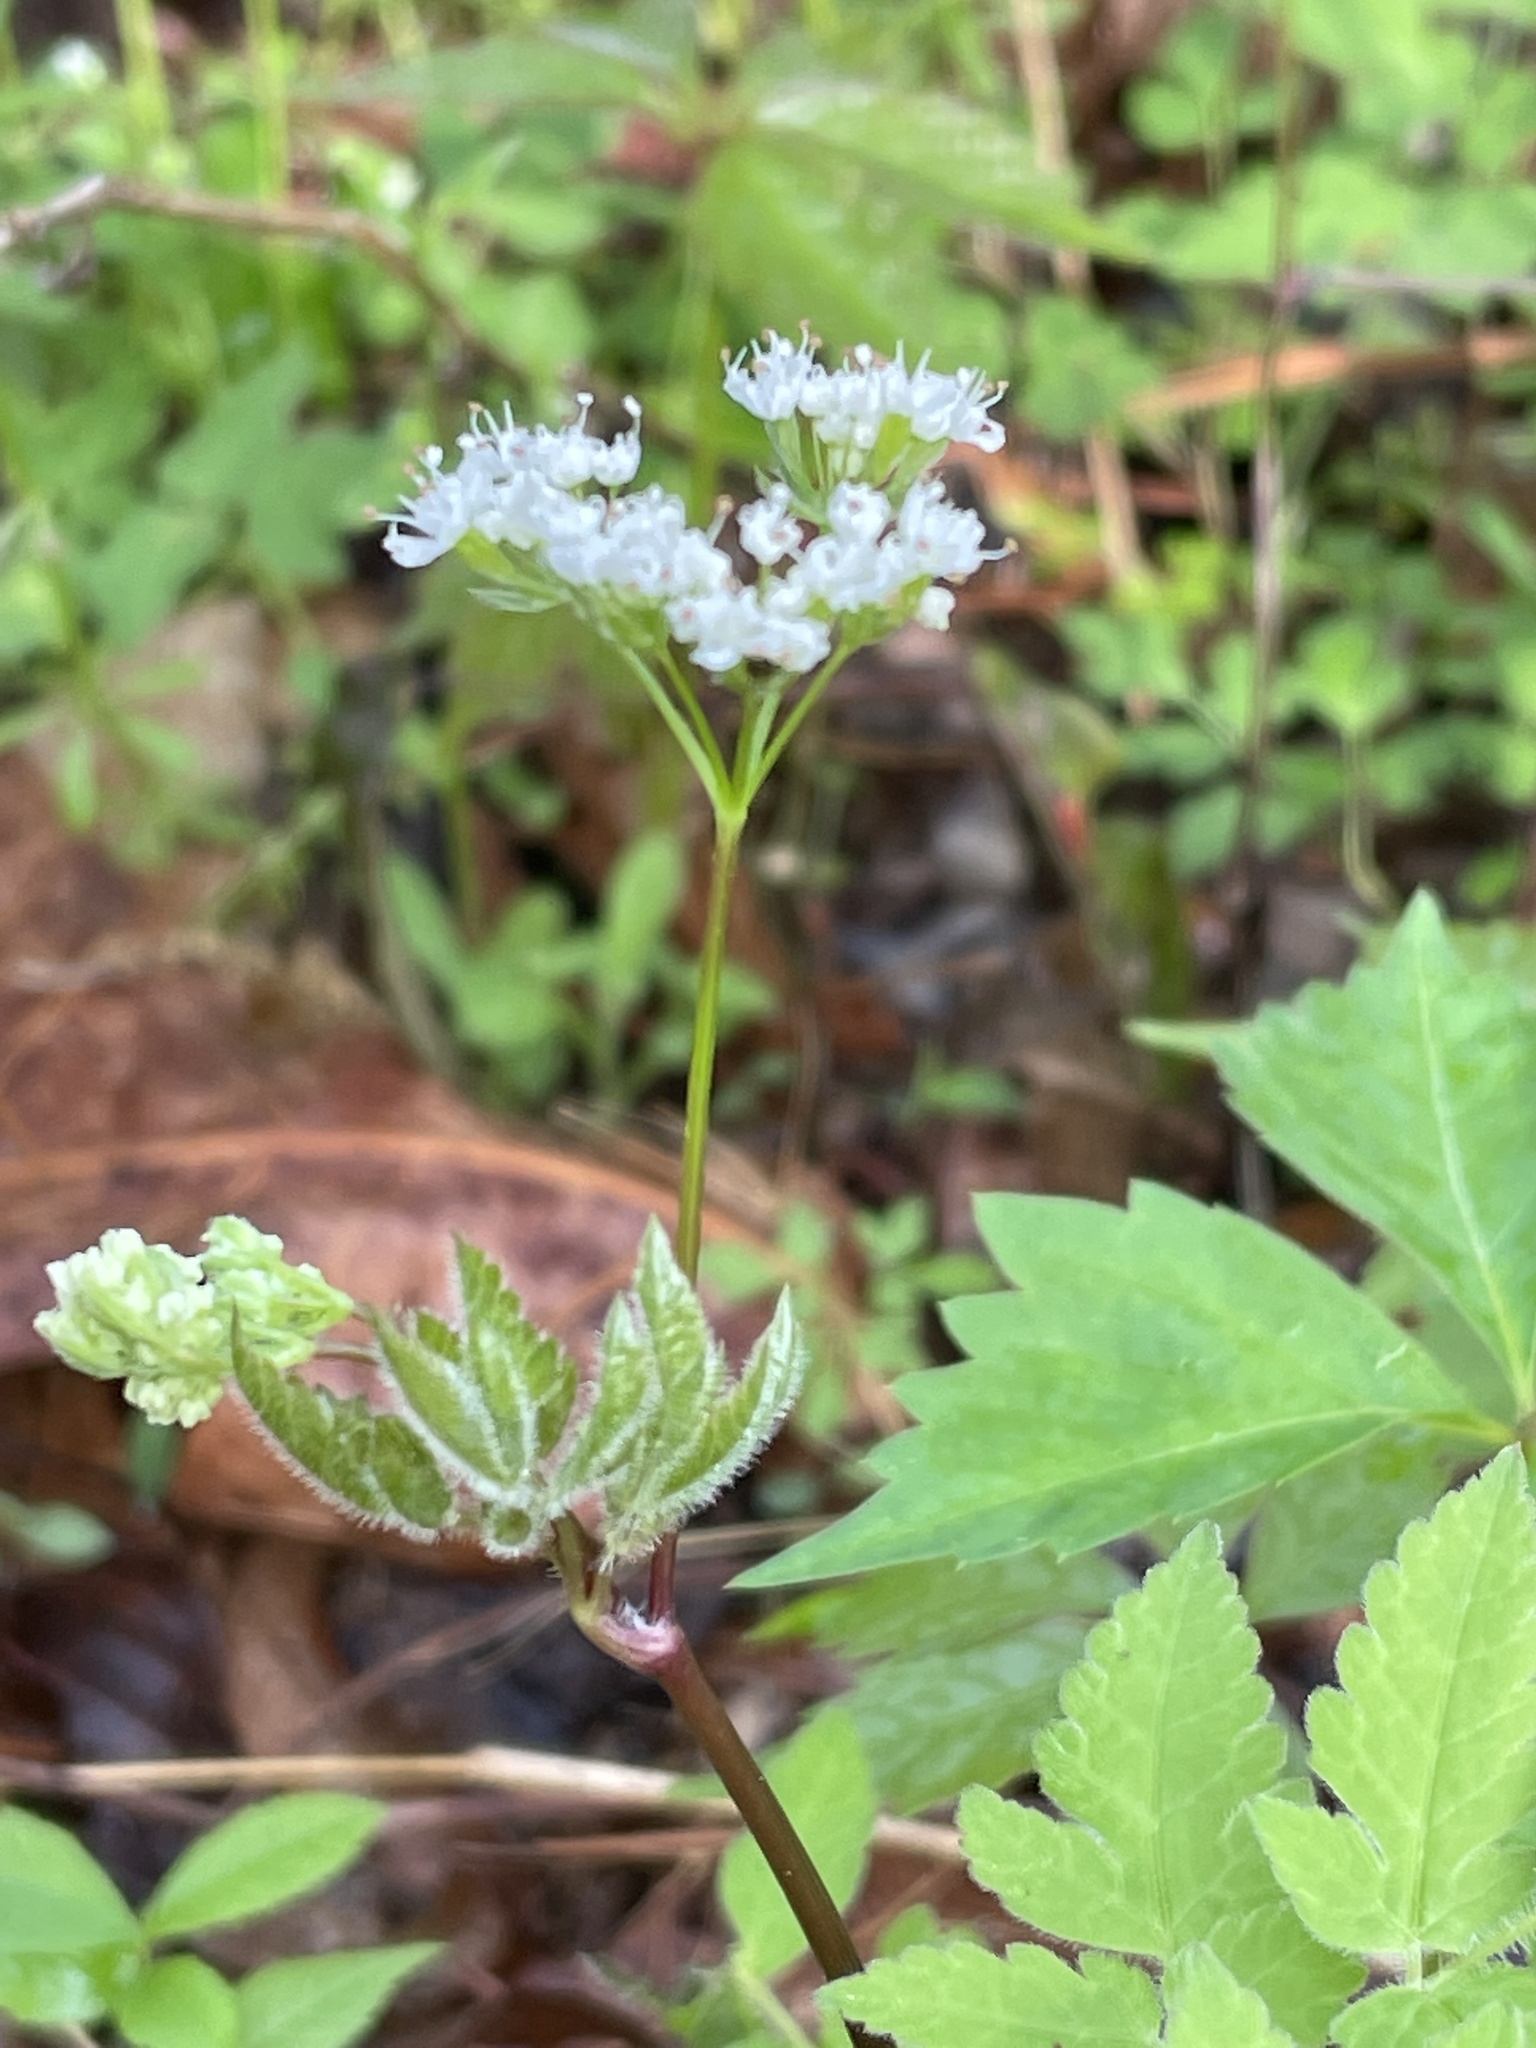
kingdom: Plantae
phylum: Tracheophyta
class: Magnoliopsida
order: Apiales
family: Apiaceae
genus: Osmorhiza
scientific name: Osmorhiza longistylis
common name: Smooth sweet cicely
